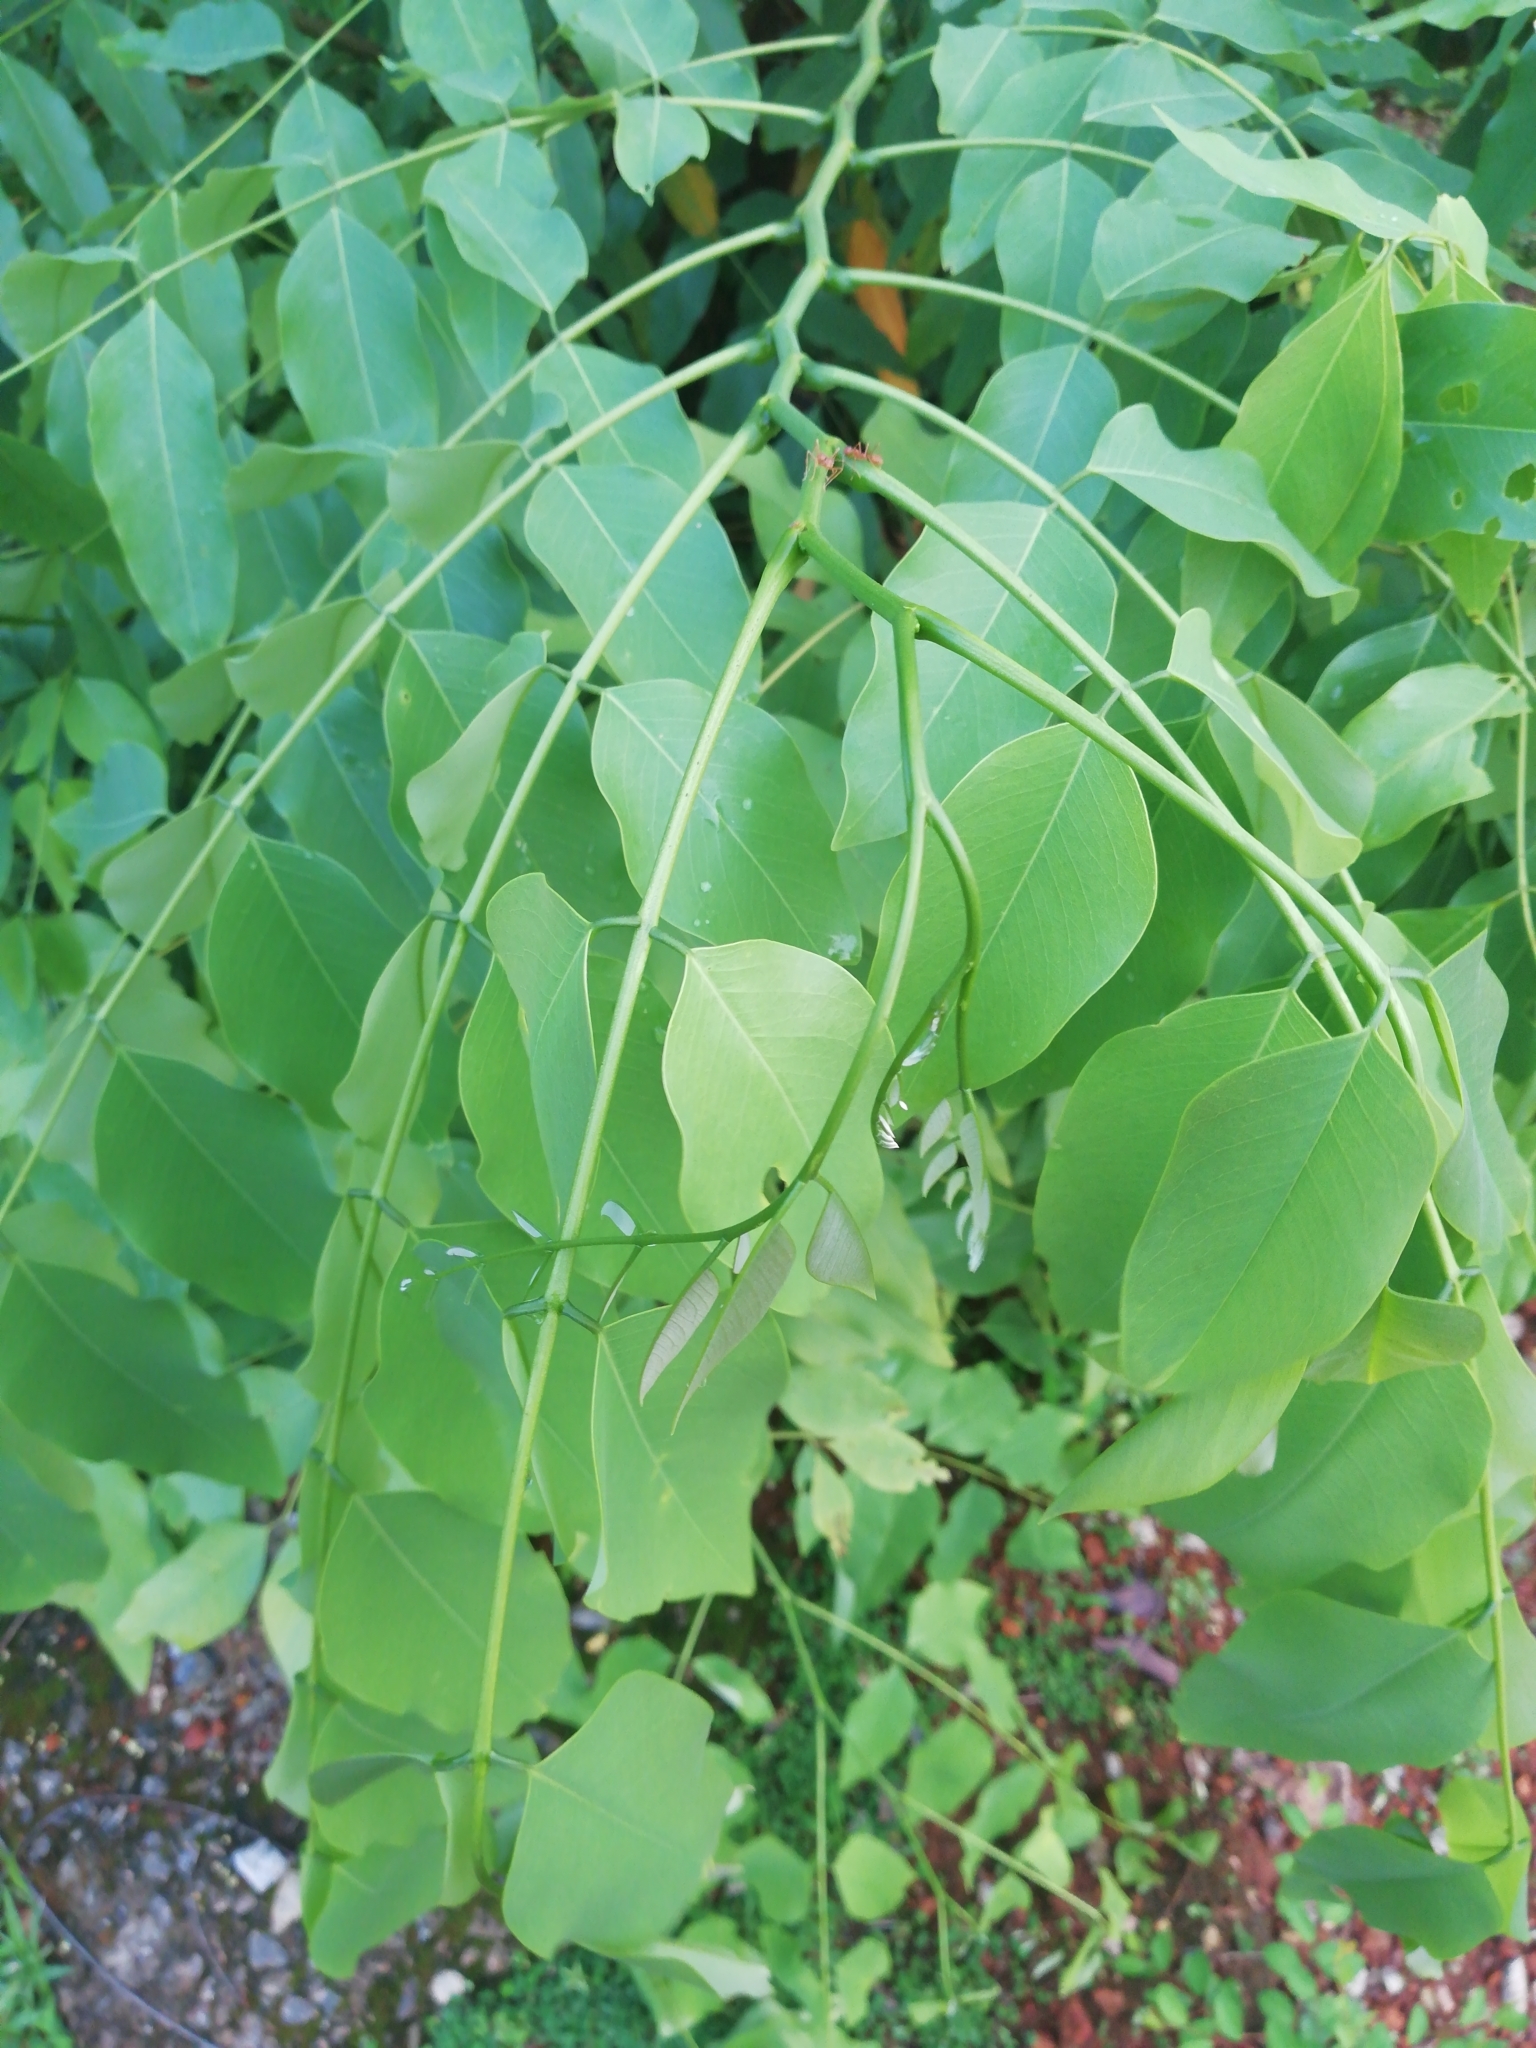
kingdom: Plantae
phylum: Tracheophyta
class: Magnoliopsida
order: Fabales
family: Fabaceae
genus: Cassia
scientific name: Cassia fistula
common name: Golden shower
